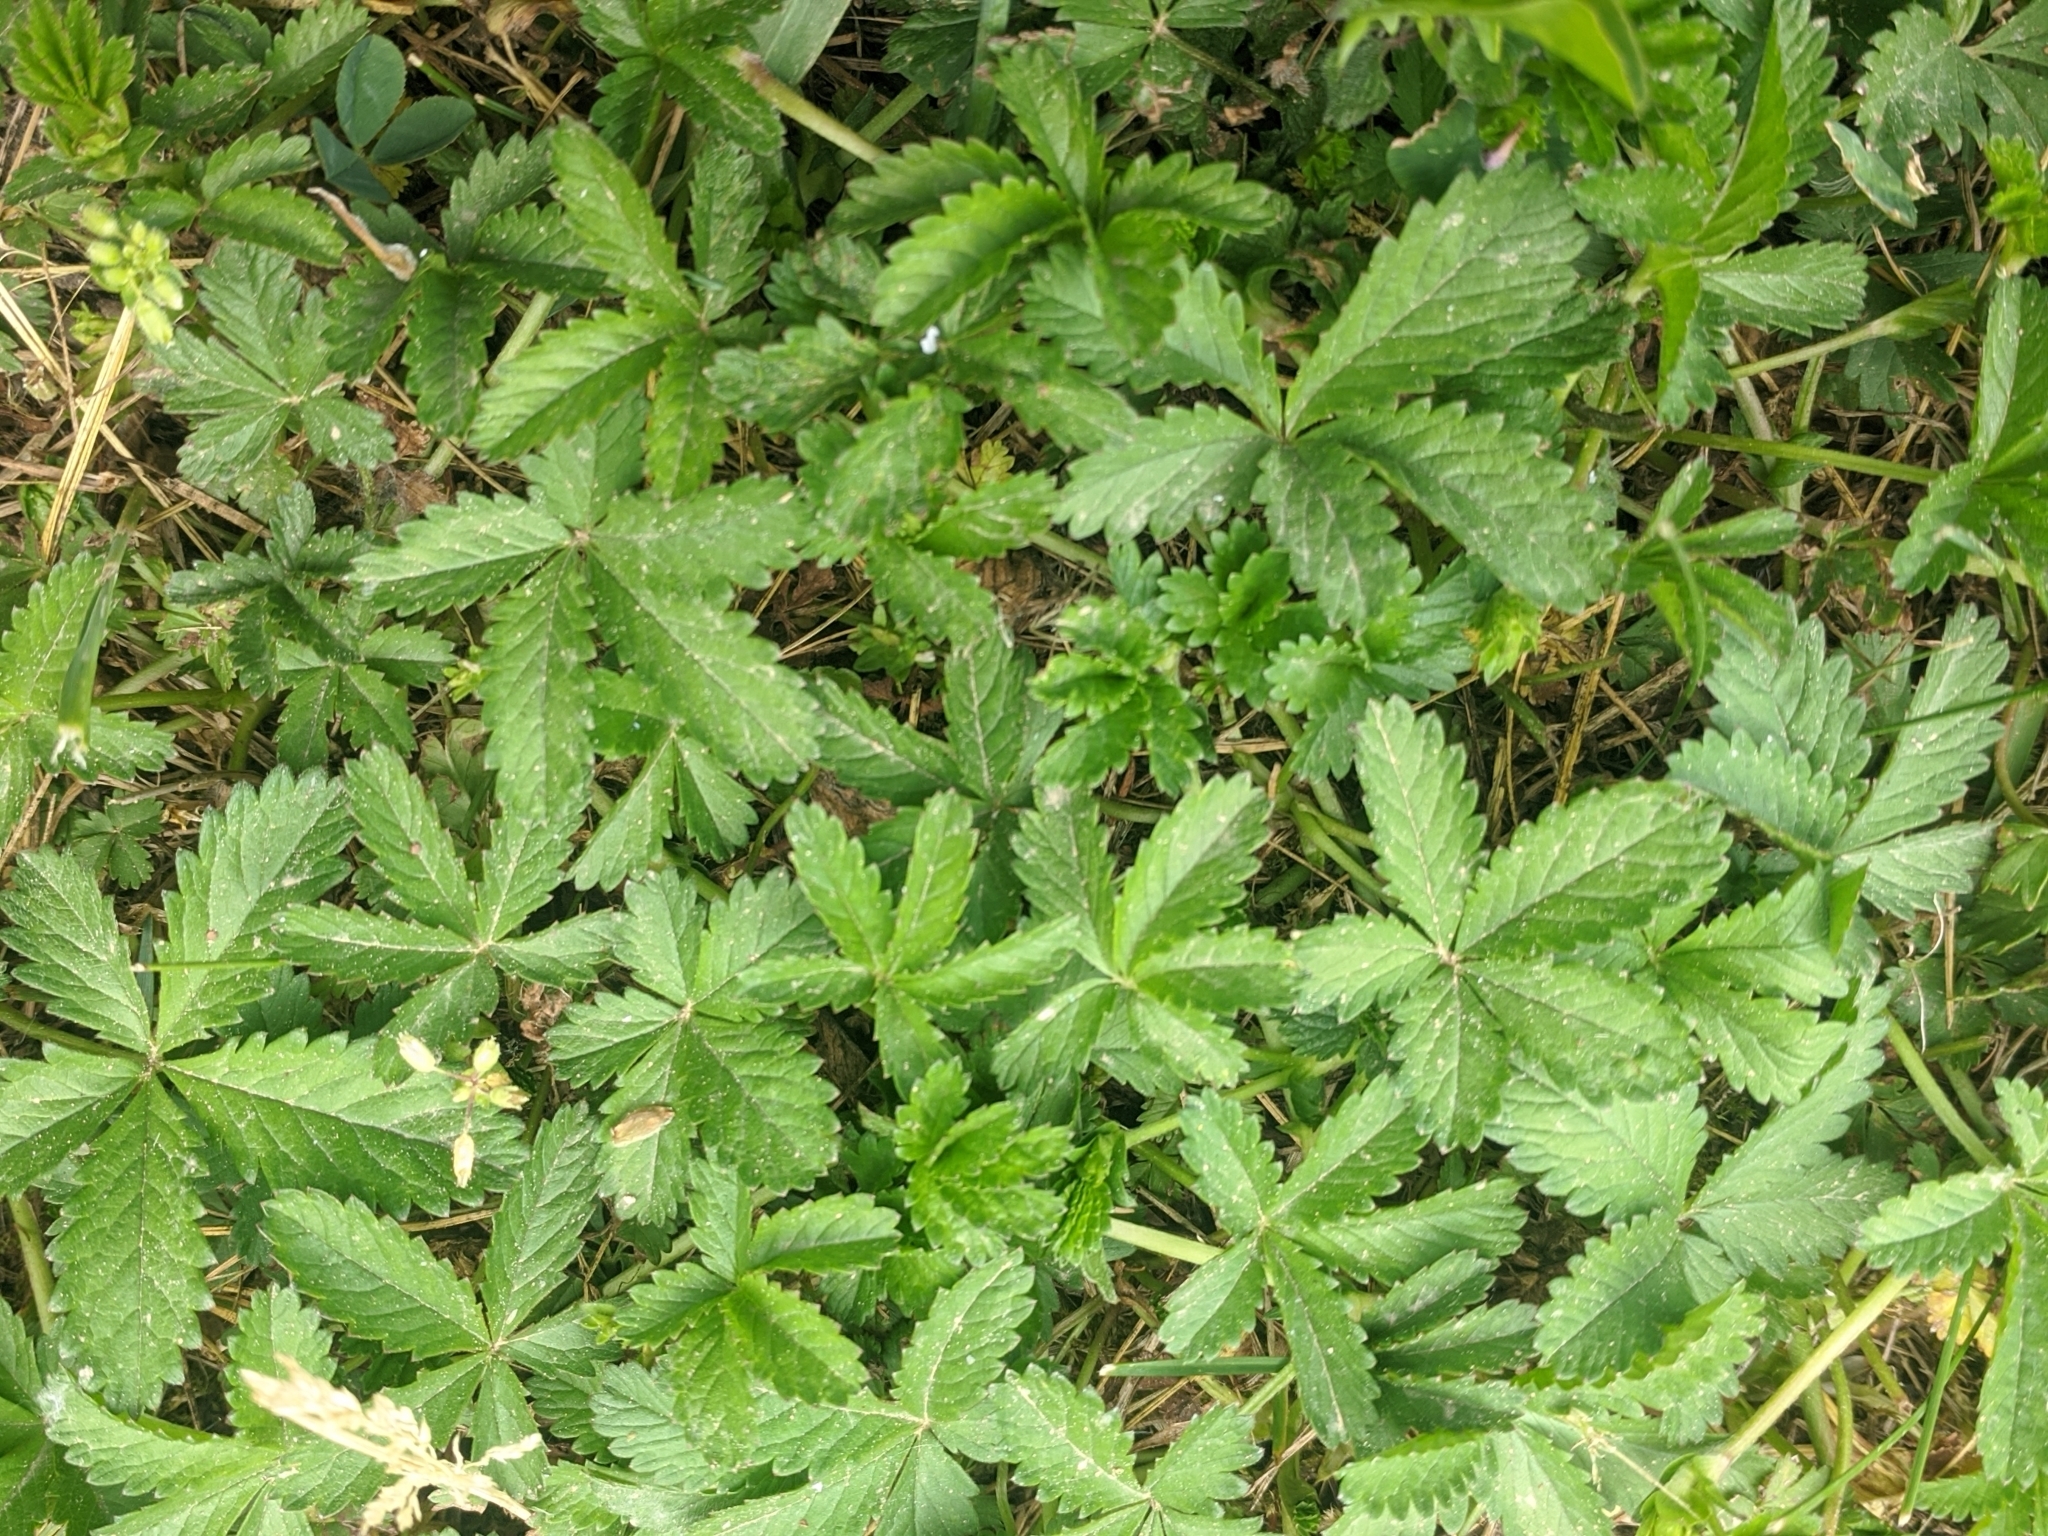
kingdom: Plantae
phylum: Tracheophyta
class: Magnoliopsida
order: Rosales
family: Rosaceae
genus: Potentilla
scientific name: Potentilla reptans
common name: Creeping cinquefoil
